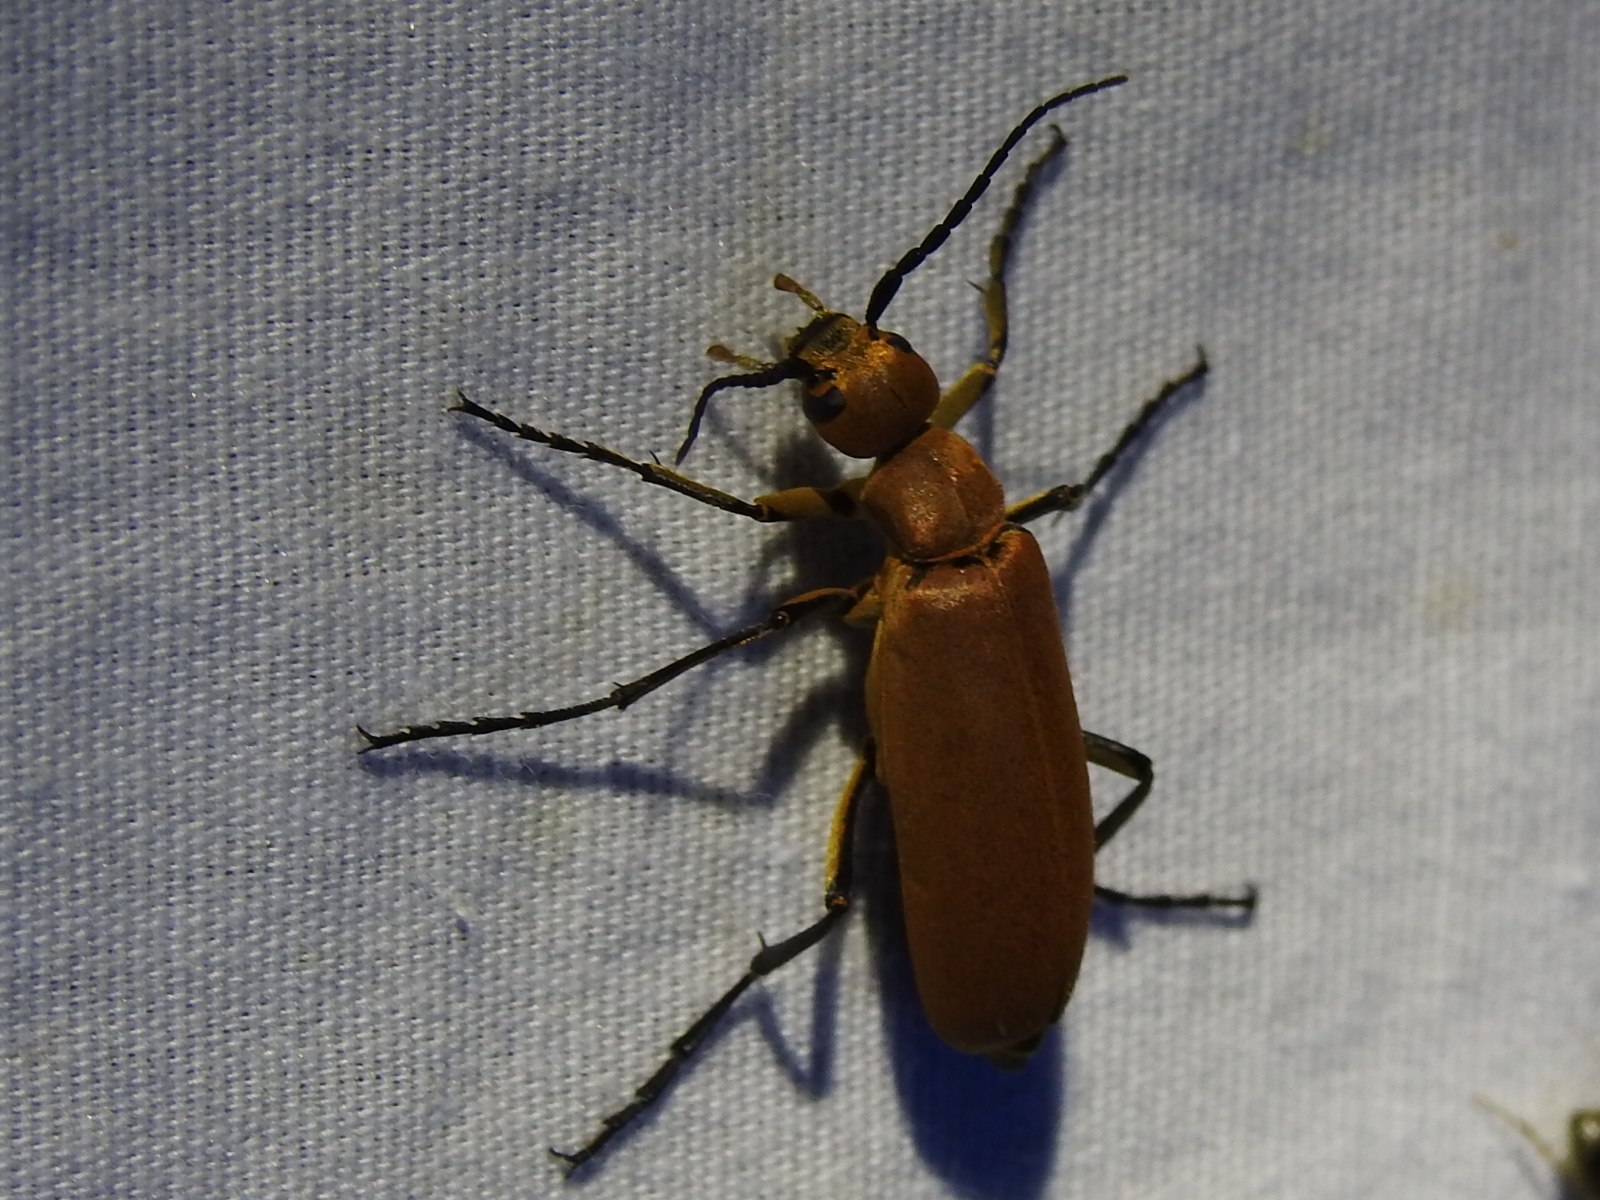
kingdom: Animalia
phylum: Arthropoda
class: Insecta
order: Coleoptera
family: Meloidae
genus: Epicauta
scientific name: Epicauta immaculata
